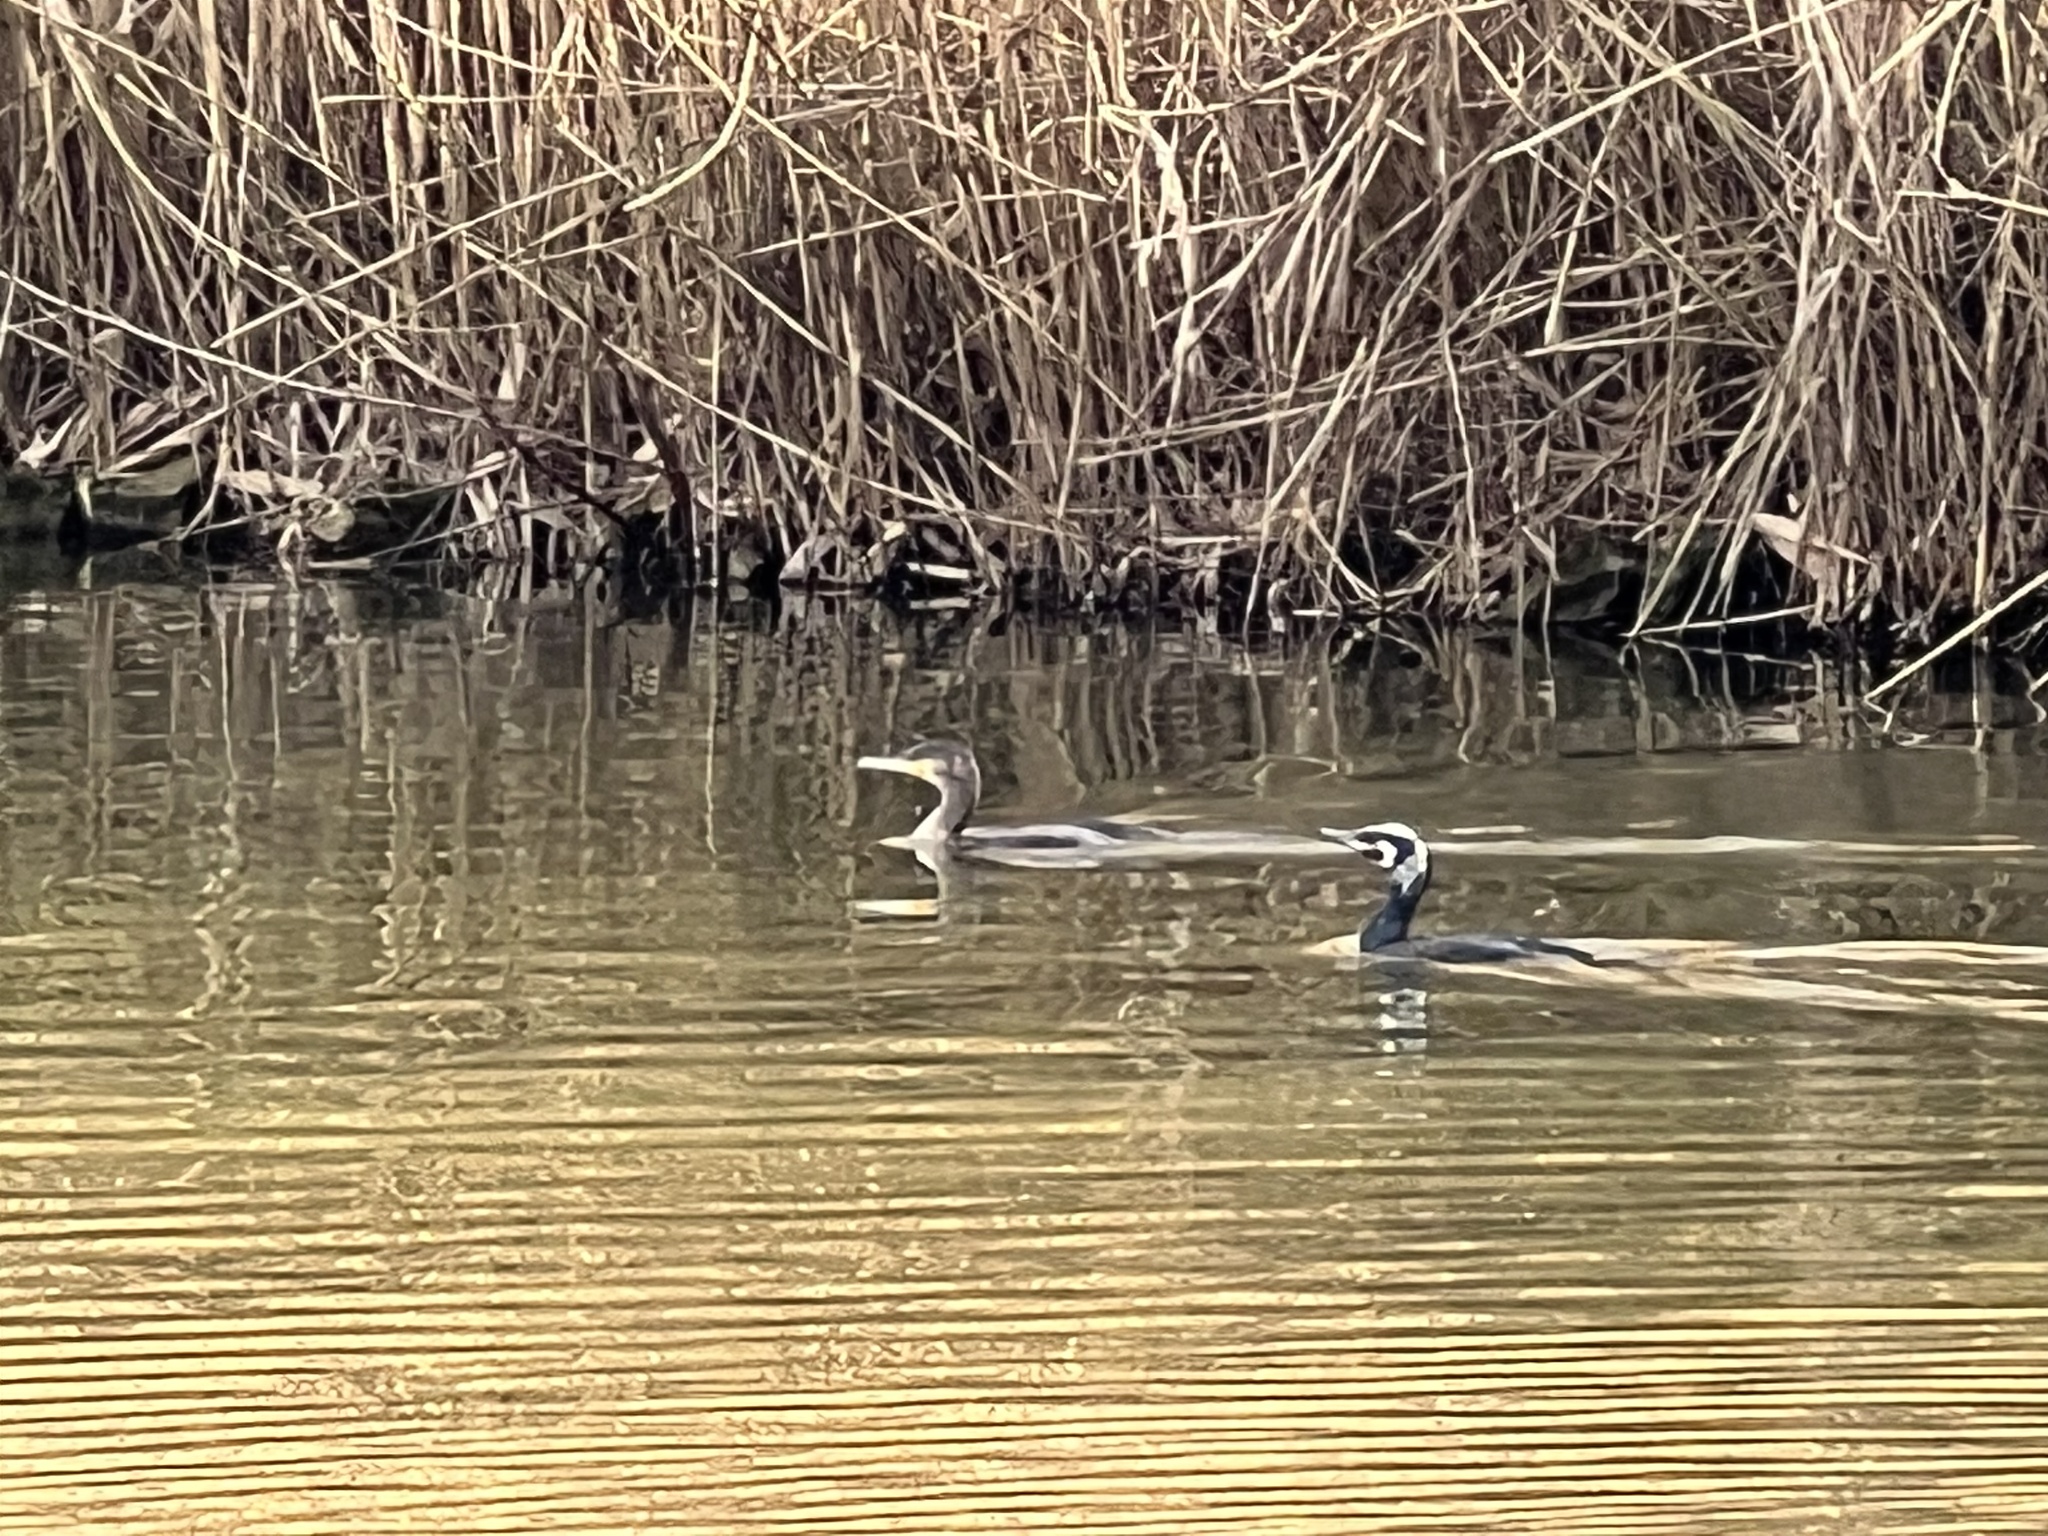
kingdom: Animalia
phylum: Chordata
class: Aves
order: Suliformes
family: Phalacrocoracidae
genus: Phalacrocorax
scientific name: Phalacrocorax carbo
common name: Great cormorant
